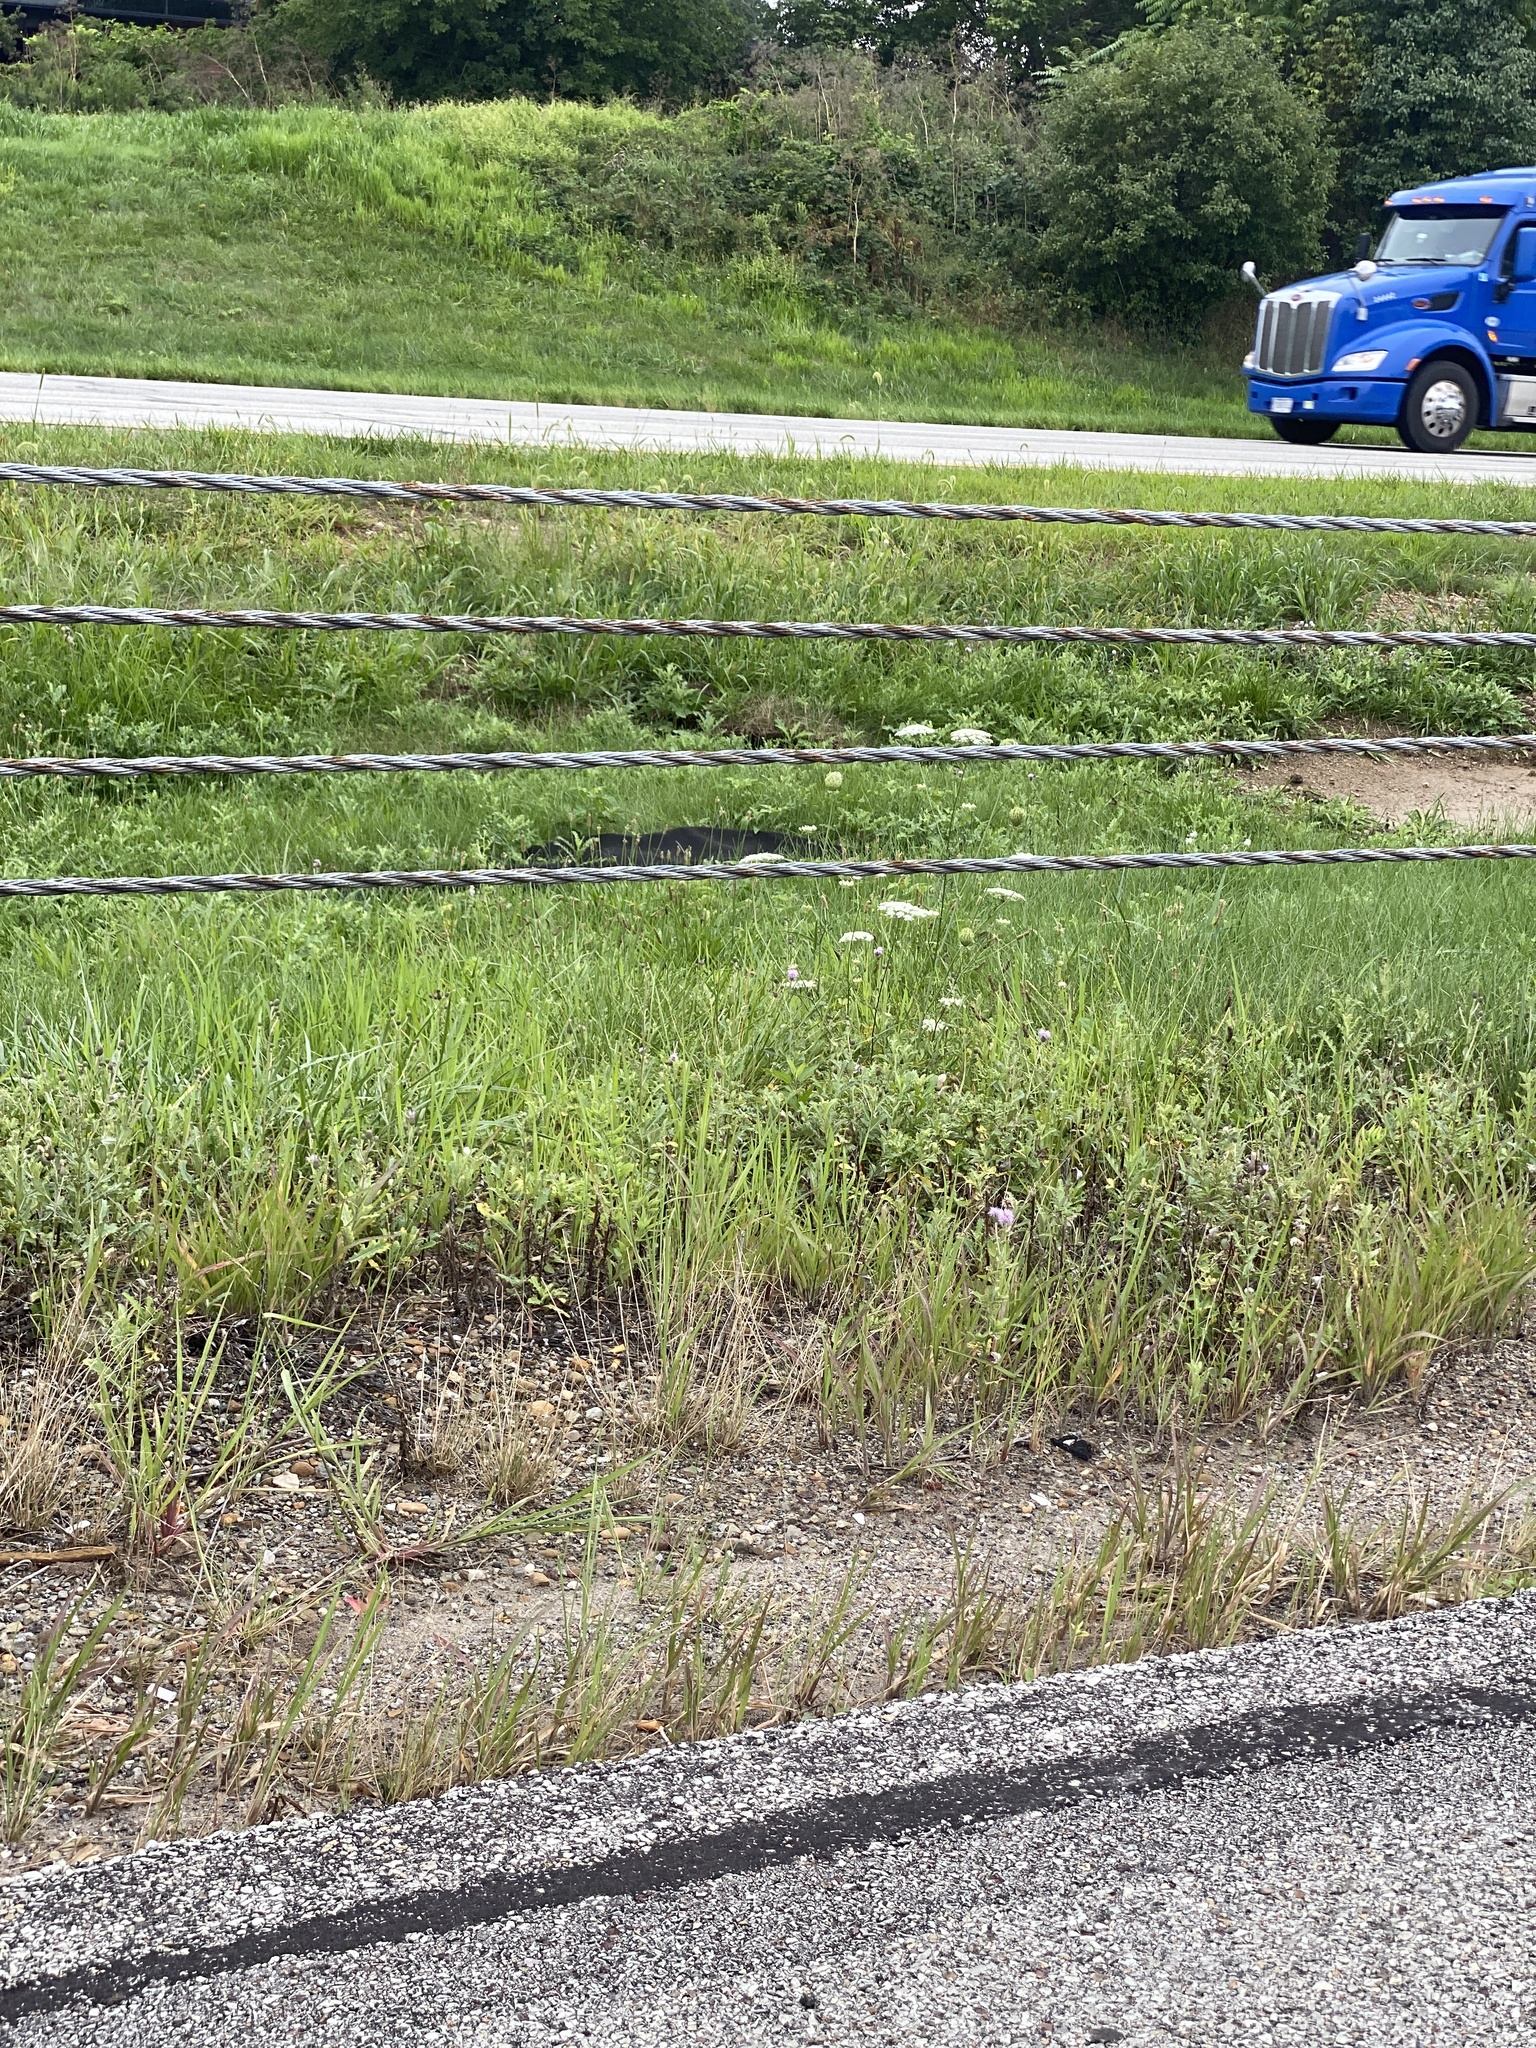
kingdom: Plantae
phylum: Tracheophyta
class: Magnoliopsida
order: Apiales
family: Apiaceae
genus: Daucus
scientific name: Daucus carota
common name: Wild carrot
